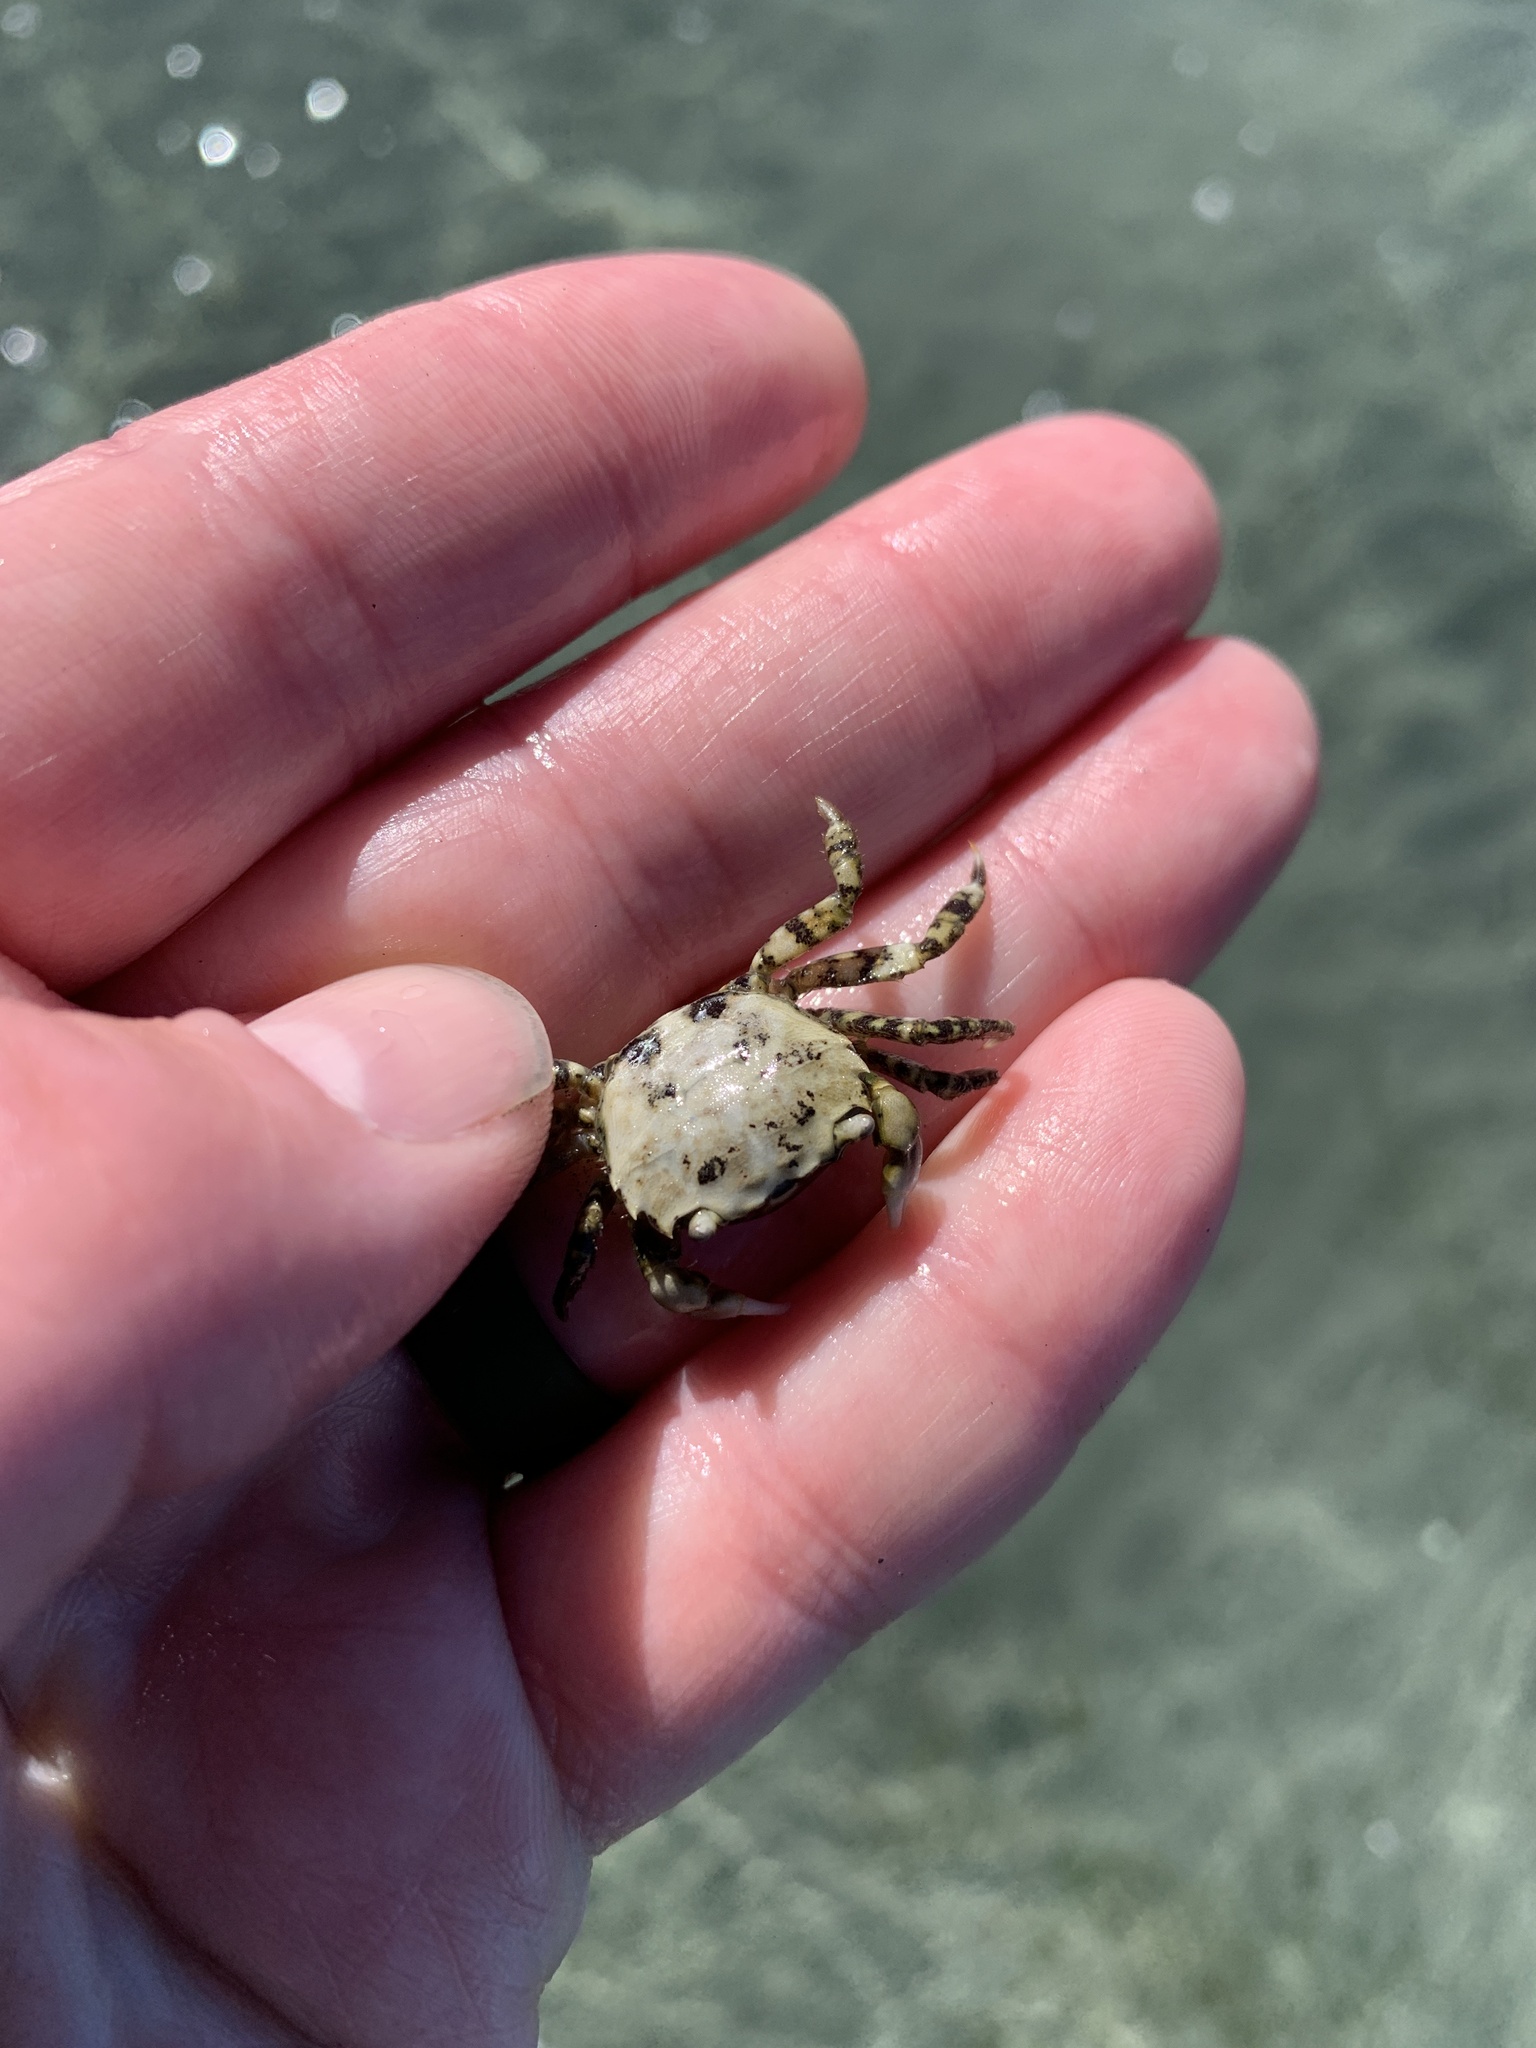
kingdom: Animalia
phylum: Arthropoda
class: Malacostraca
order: Decapoda
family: Varunidae
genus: Hemigrapsus
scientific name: Hemigrapsus oregonensis
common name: Yellow shore crab
